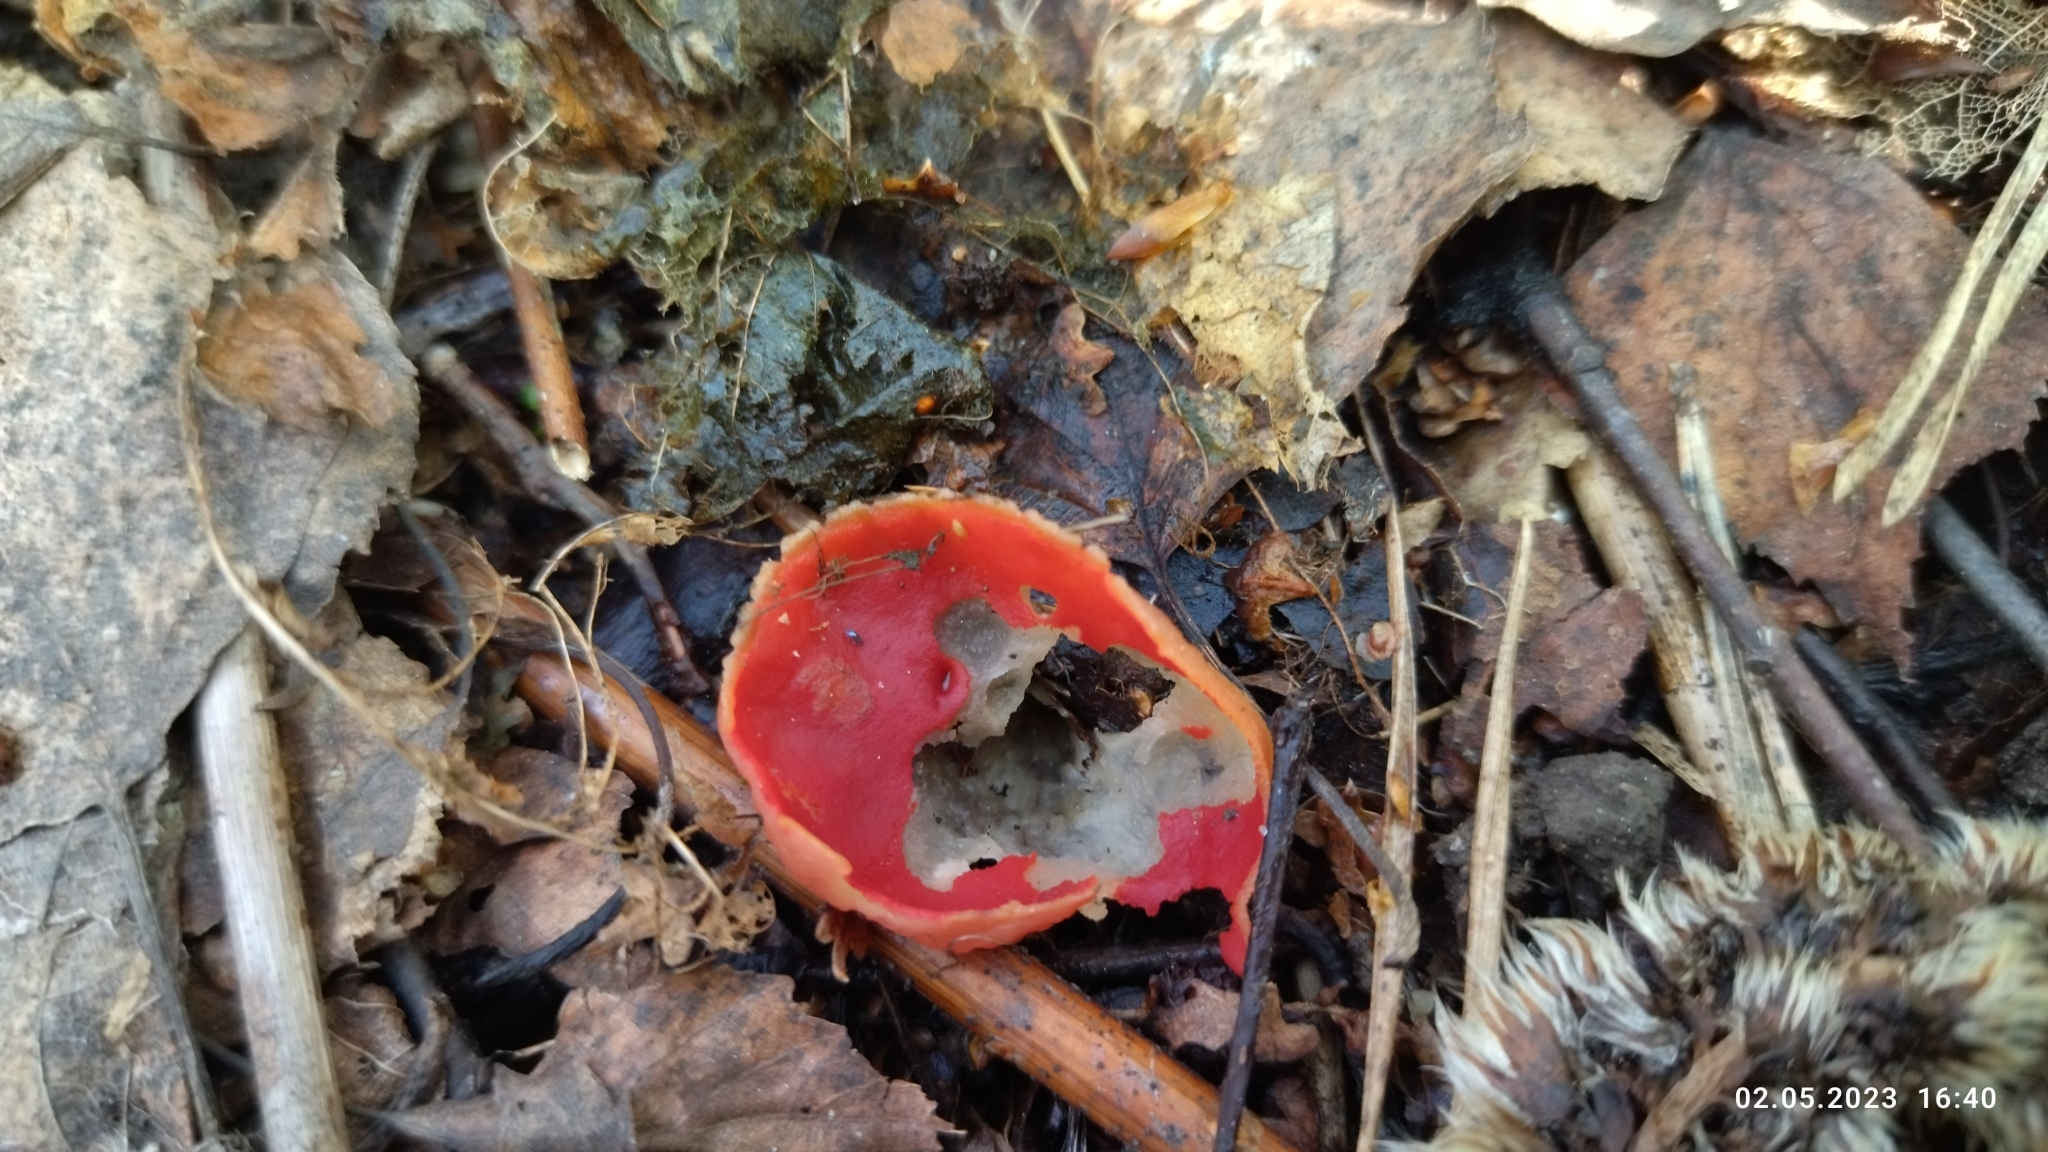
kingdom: Fungi
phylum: Ascomycota
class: Pezizomycetes
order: Pezizales
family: Sarcoscyphaceae
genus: Sarcoscypha
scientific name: Sarcoscypha austriaca
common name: Scarlet elfcup
